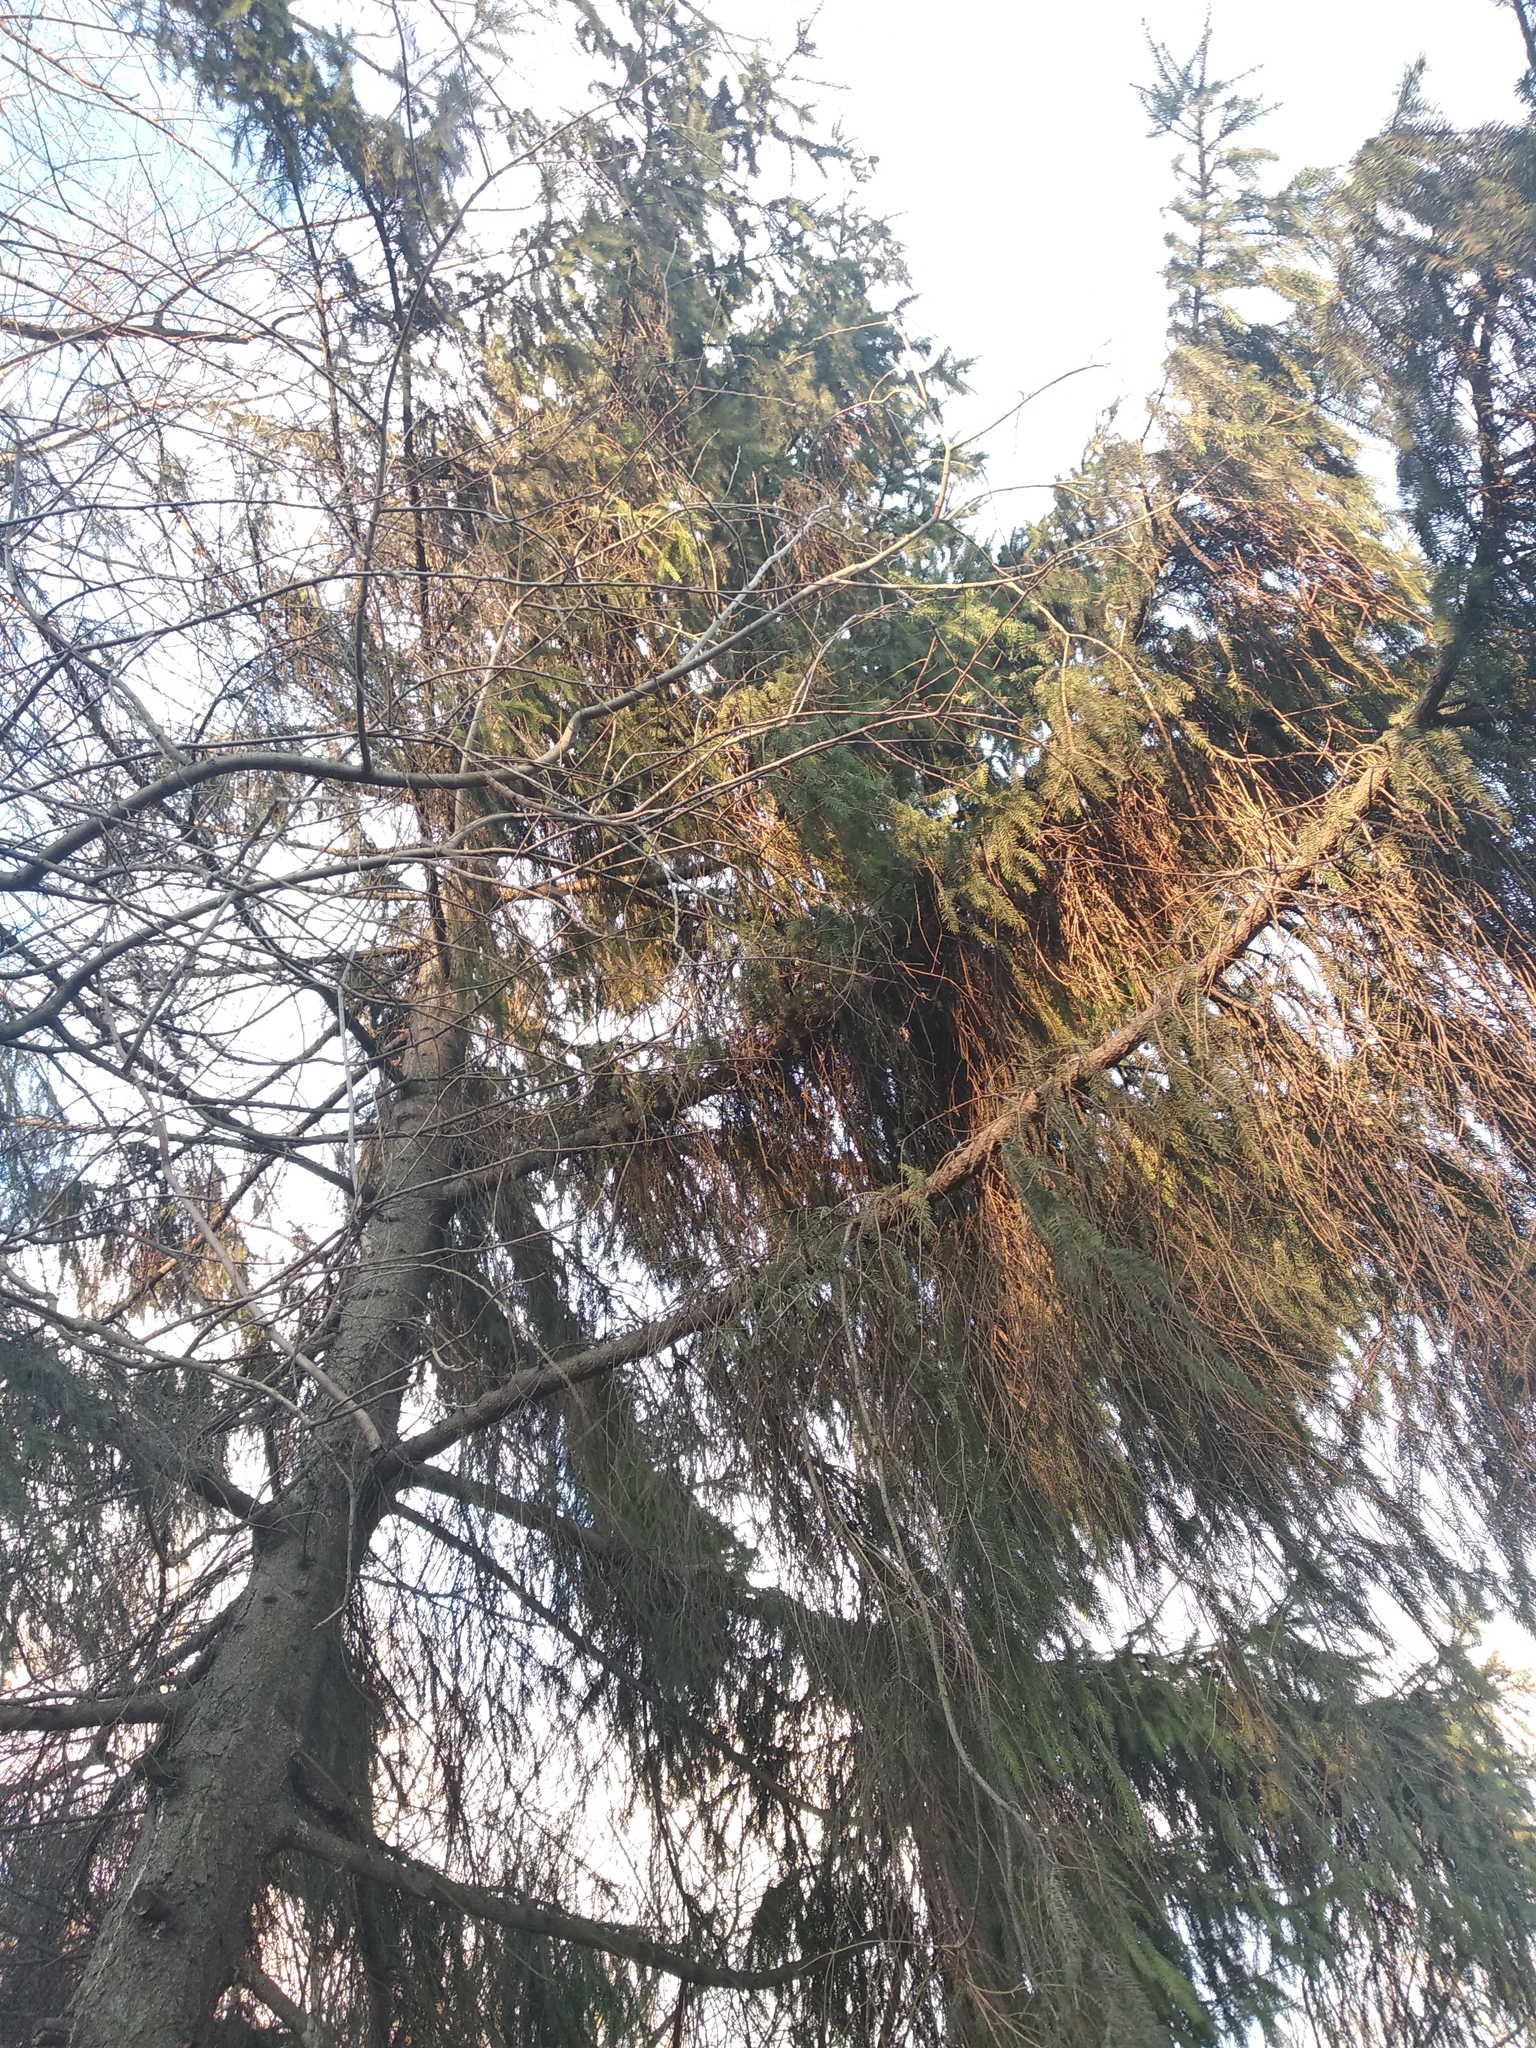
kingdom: Plantae
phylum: Tracheophyta
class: Pinopsida
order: Pinales
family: Pinaceae
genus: Picea
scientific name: Picea abies
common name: Norway spruce
